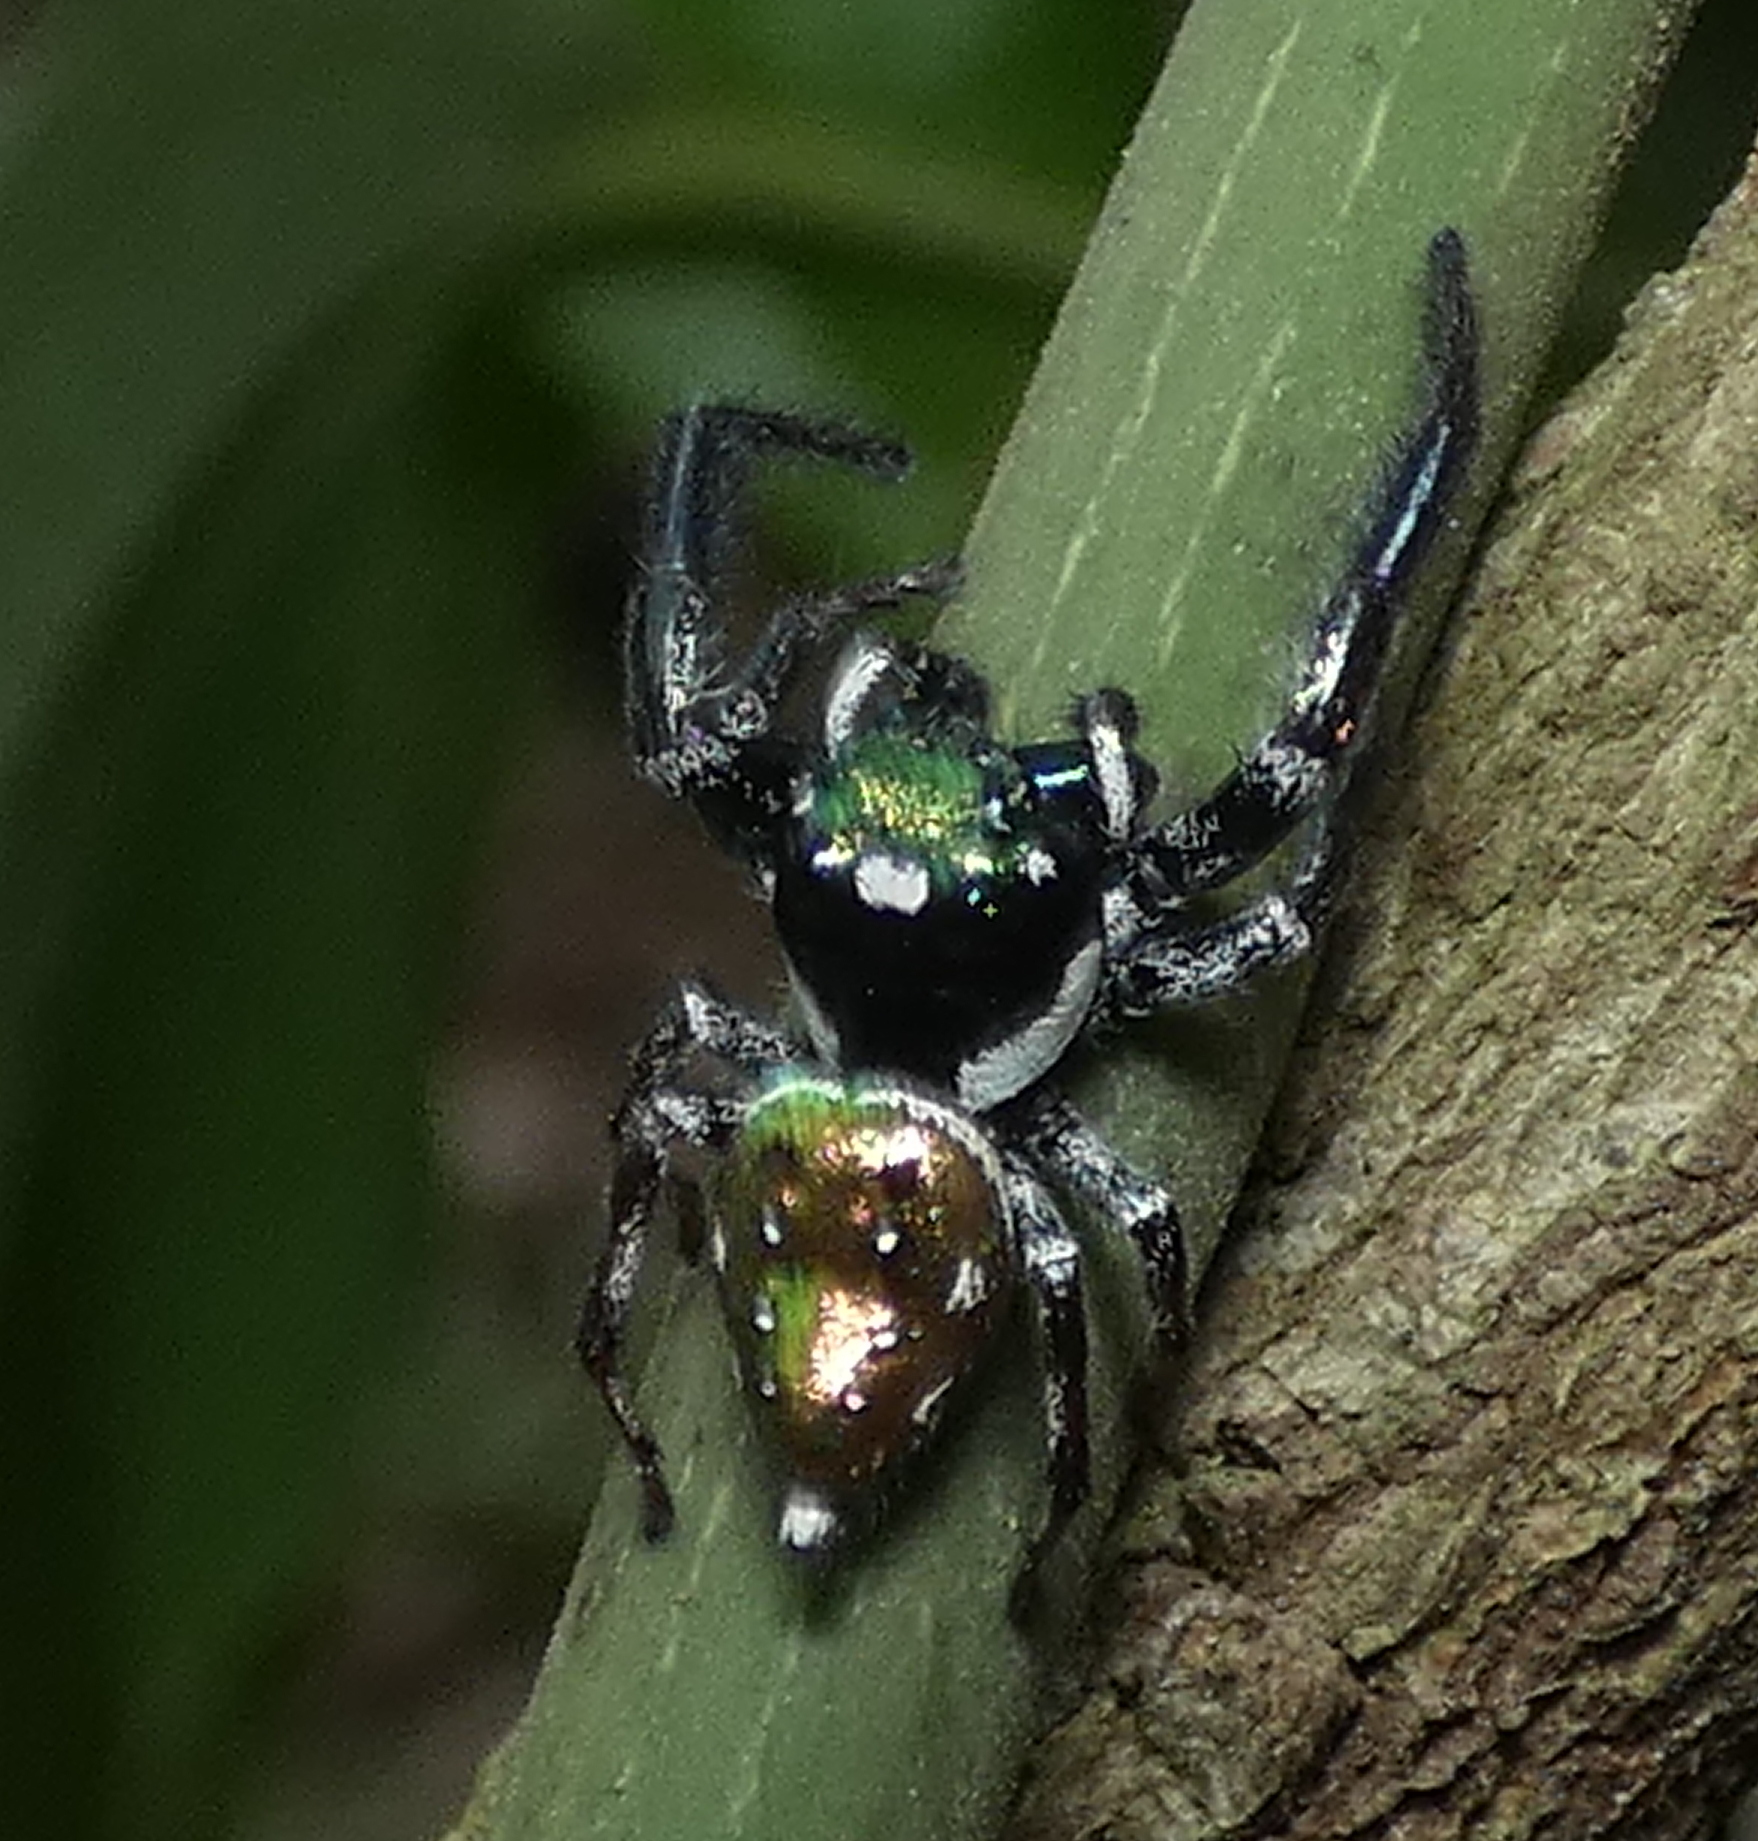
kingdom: Animalia
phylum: Arthropoda
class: Arachnida
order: Araneae
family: Salticidae
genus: Parnaenus
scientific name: Parnaenus cyanidens
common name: Jumping spiders
